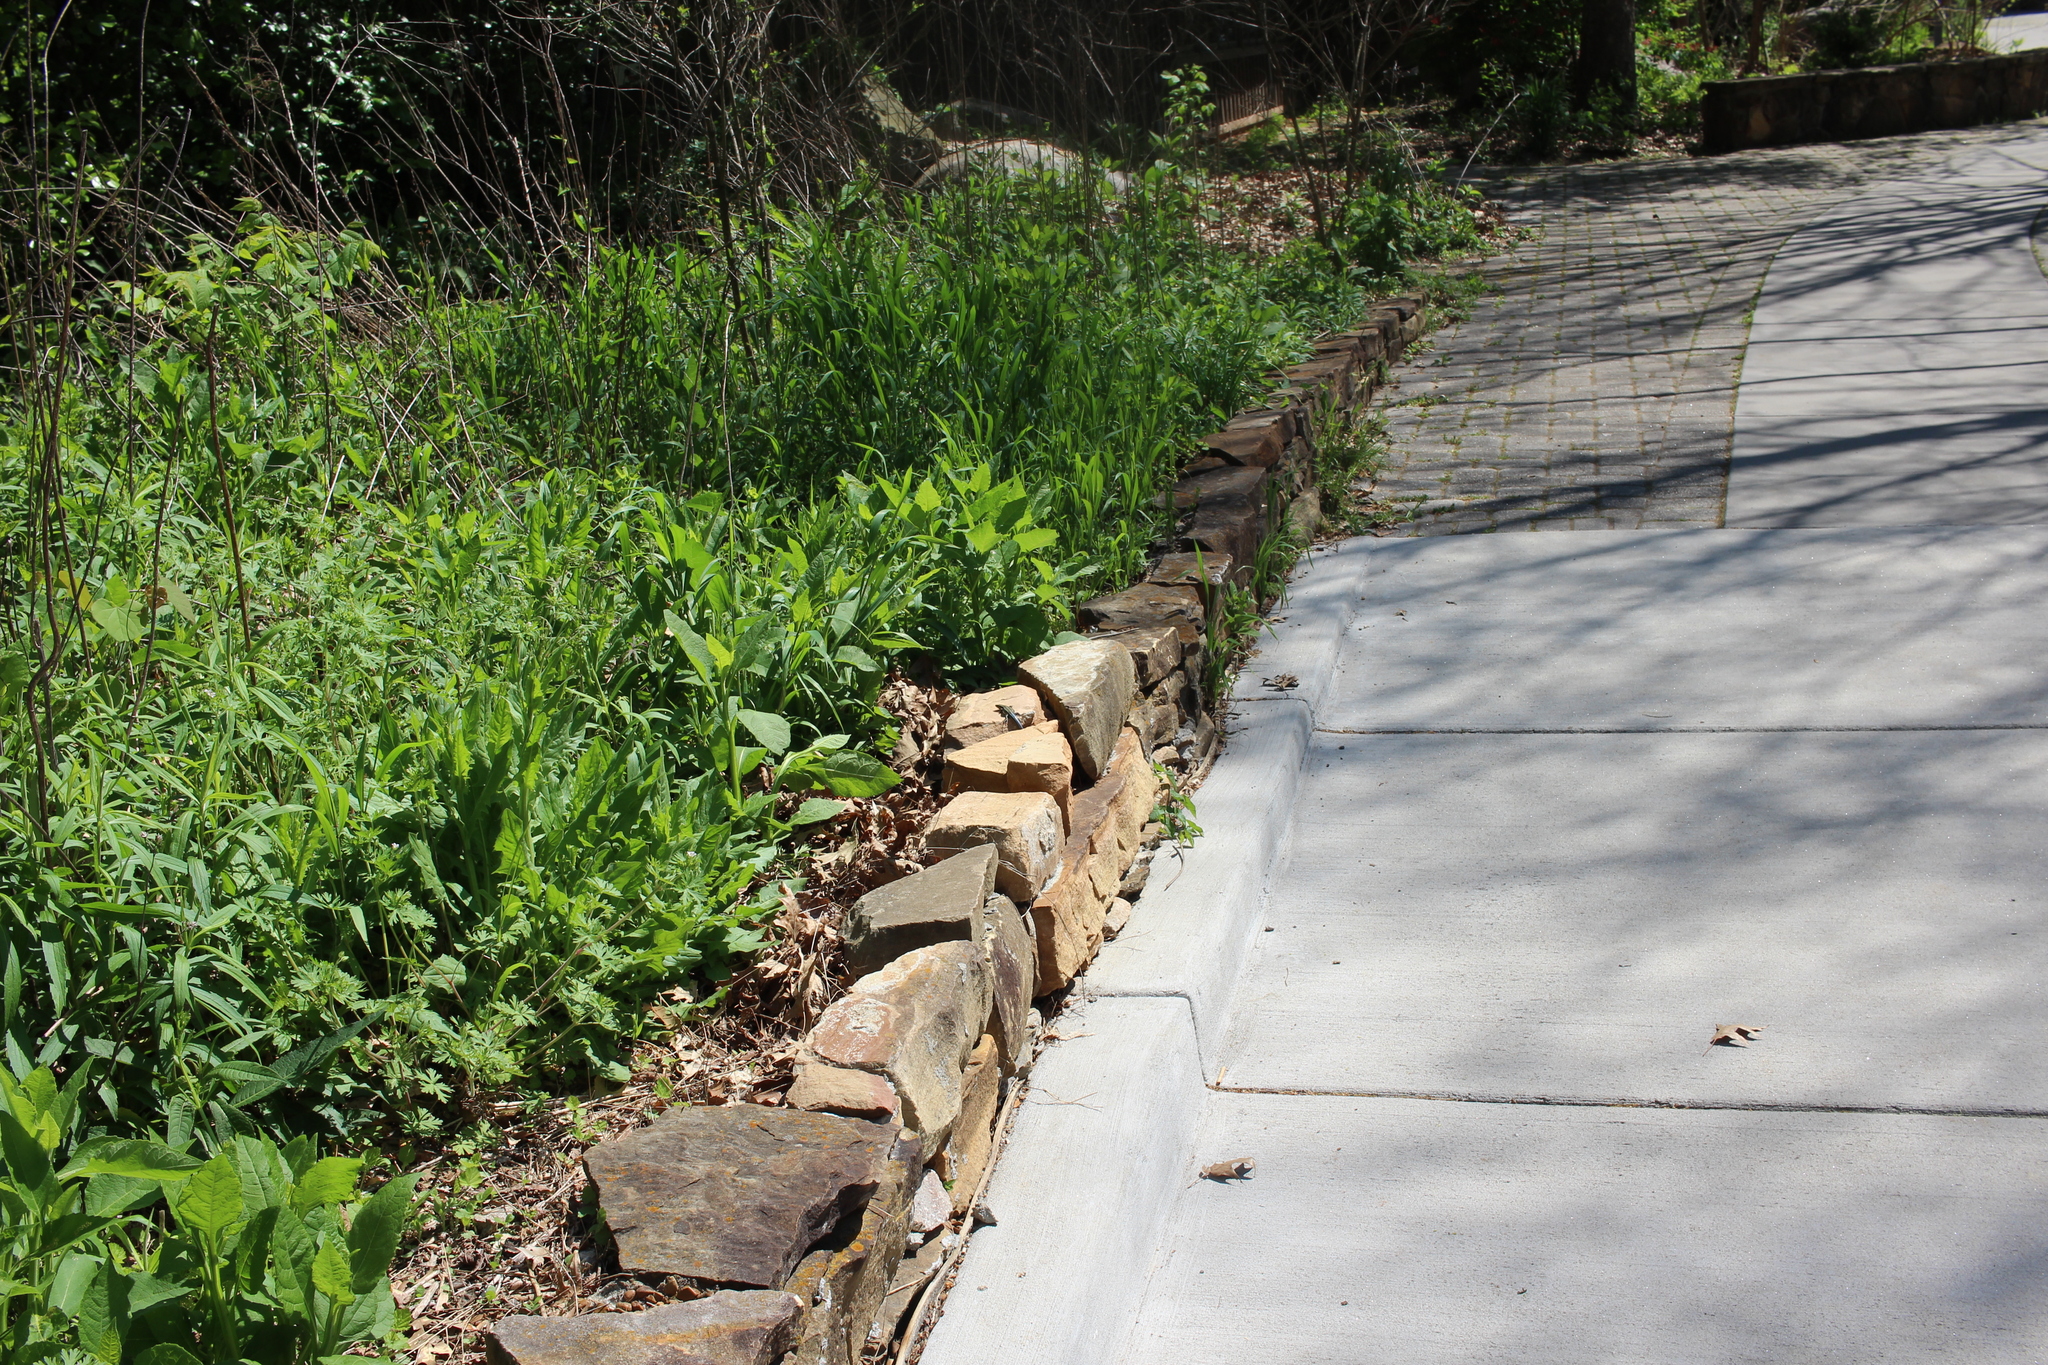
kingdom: Animalia
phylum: Chordata
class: Squamata
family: Scincidae
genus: Plestiodon
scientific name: Plestiodon
